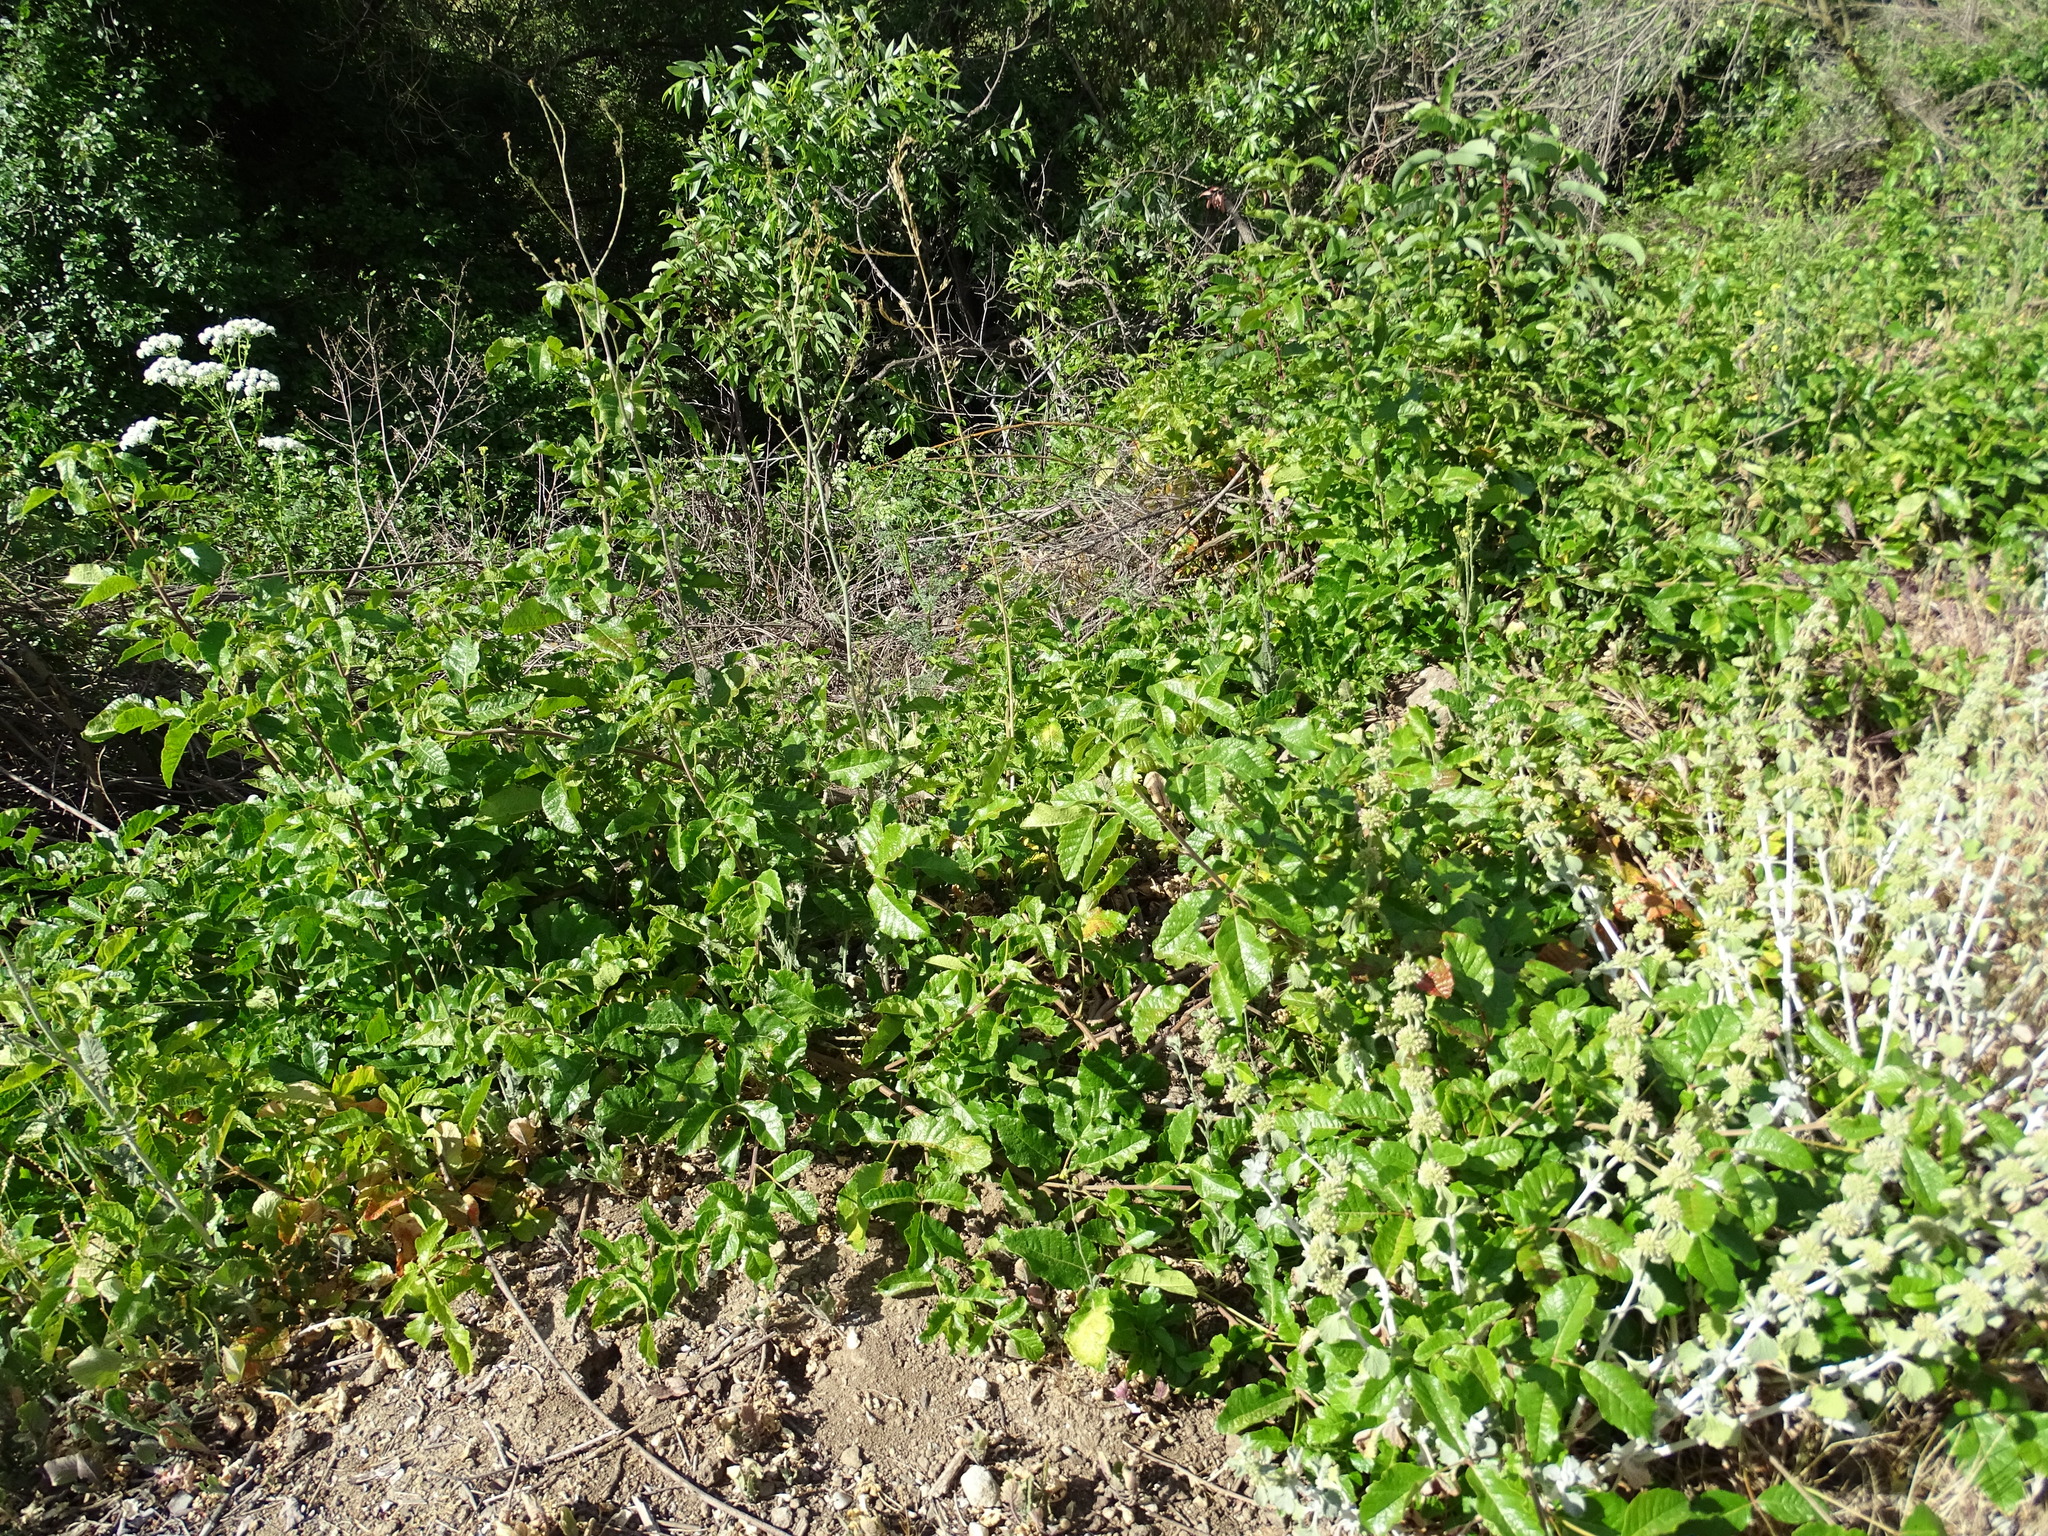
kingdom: Plantae
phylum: Tracheophyta
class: Magnoliopsida
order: Sapindales
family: Anacardiaceae
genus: Toxicodendron
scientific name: Toxicodendron diversilobum
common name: Pacific poison-oak
